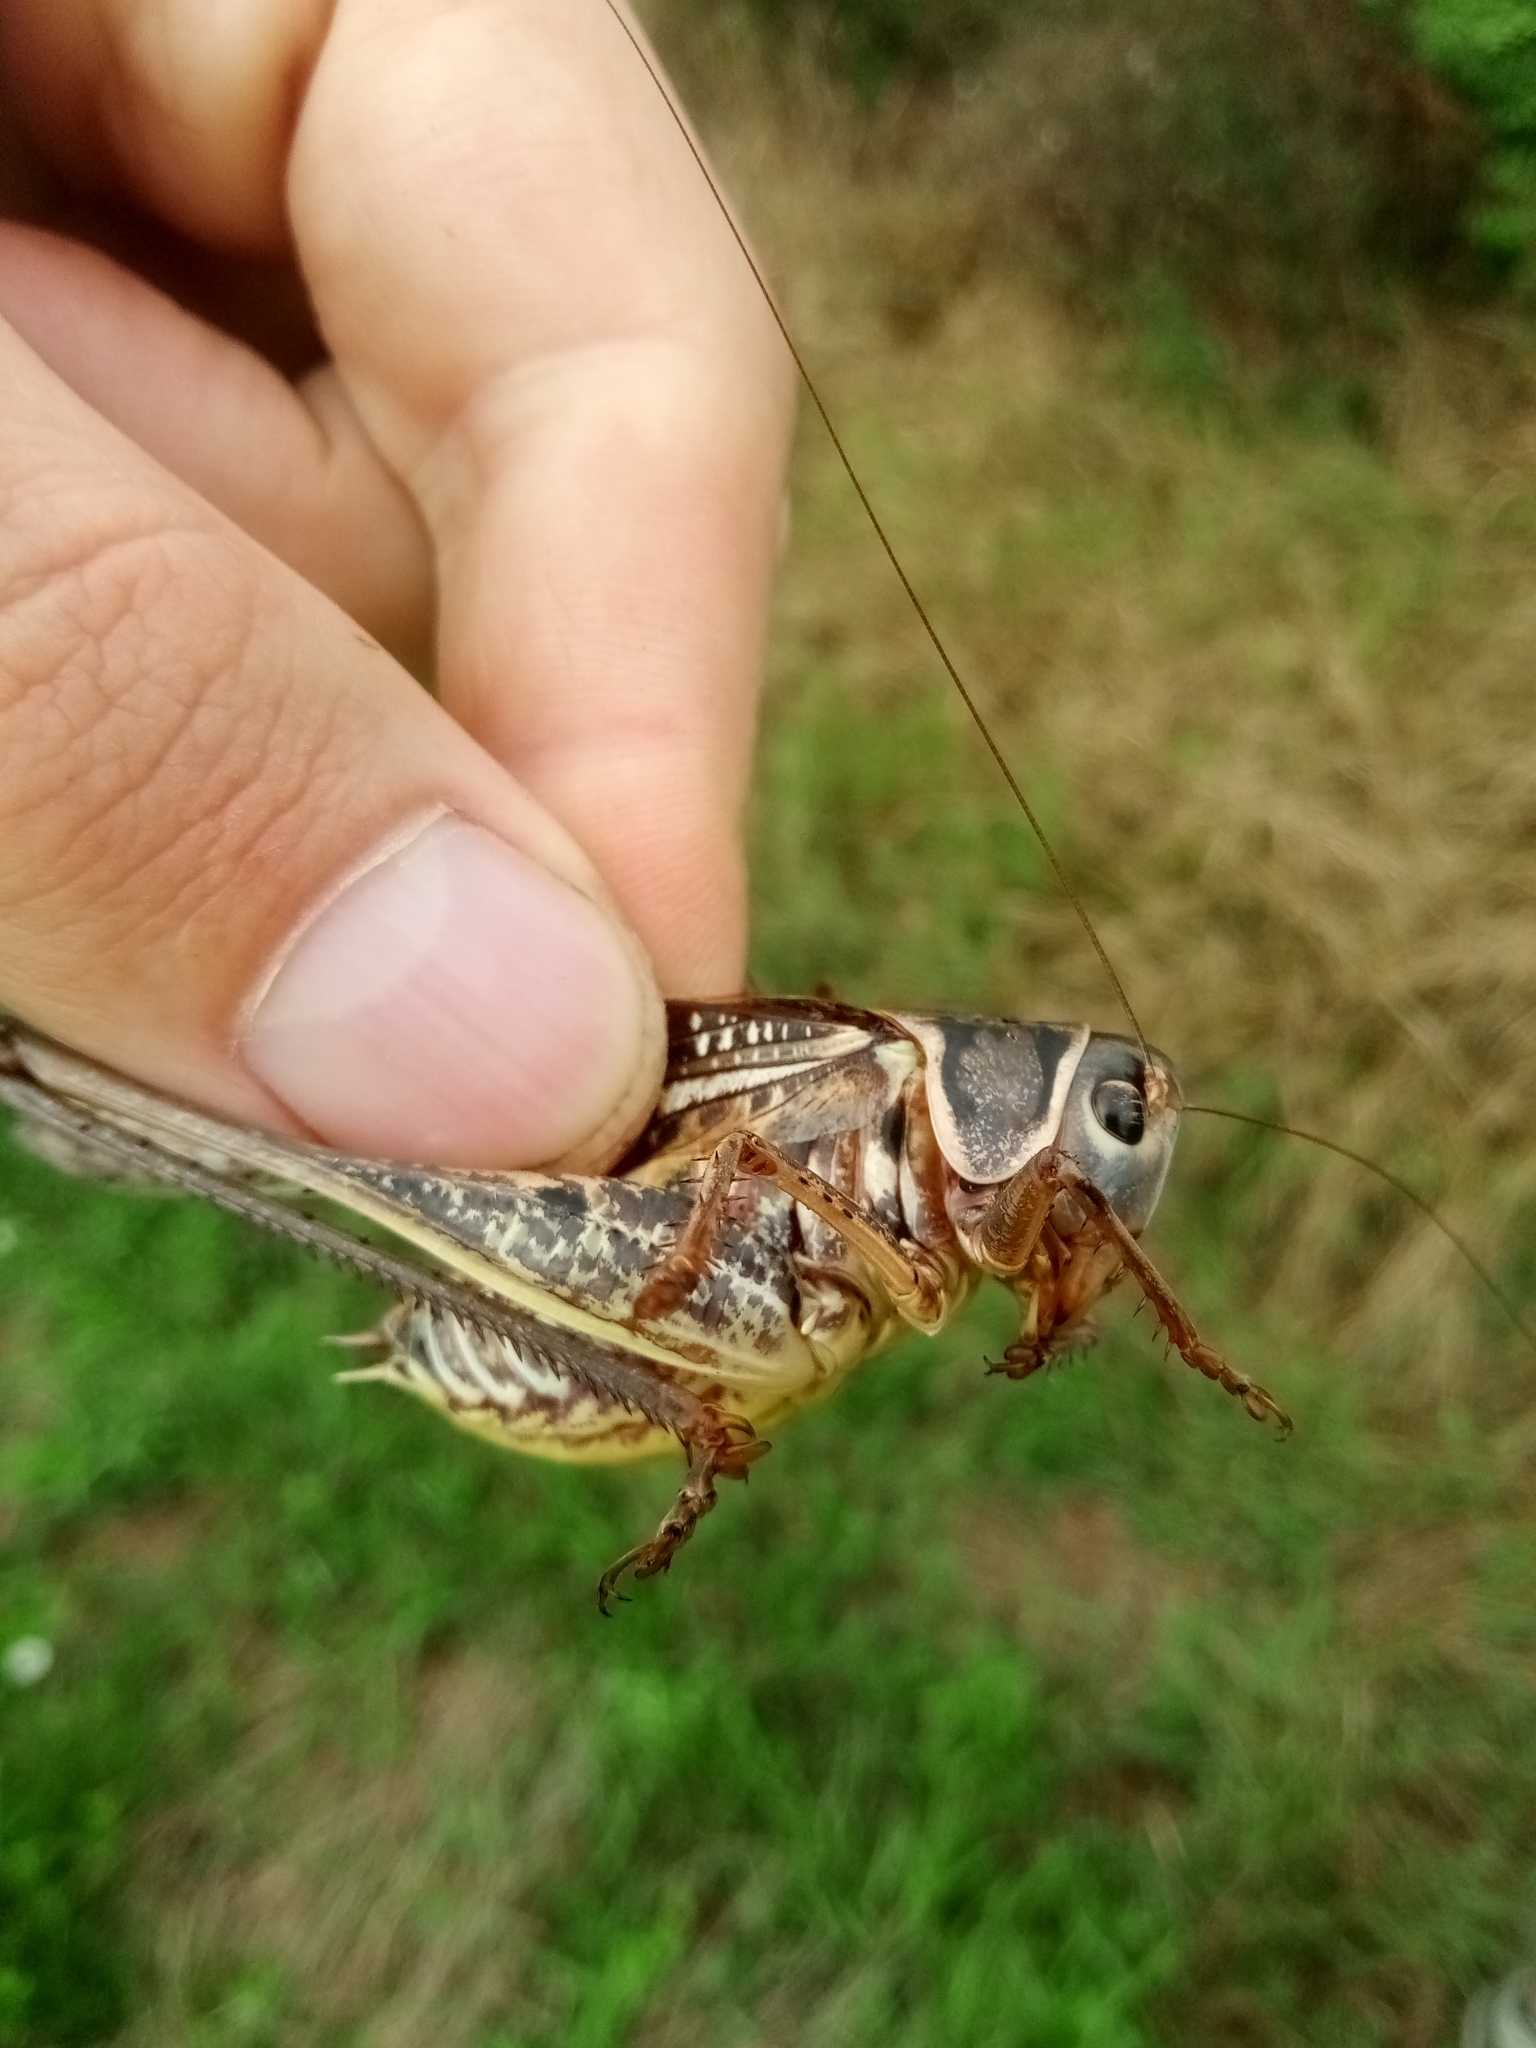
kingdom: Animalia
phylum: Arthropoda
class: Insecta
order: Orthoptera
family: Tettigoniidae
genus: Decticus
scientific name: Decticus albifrons
